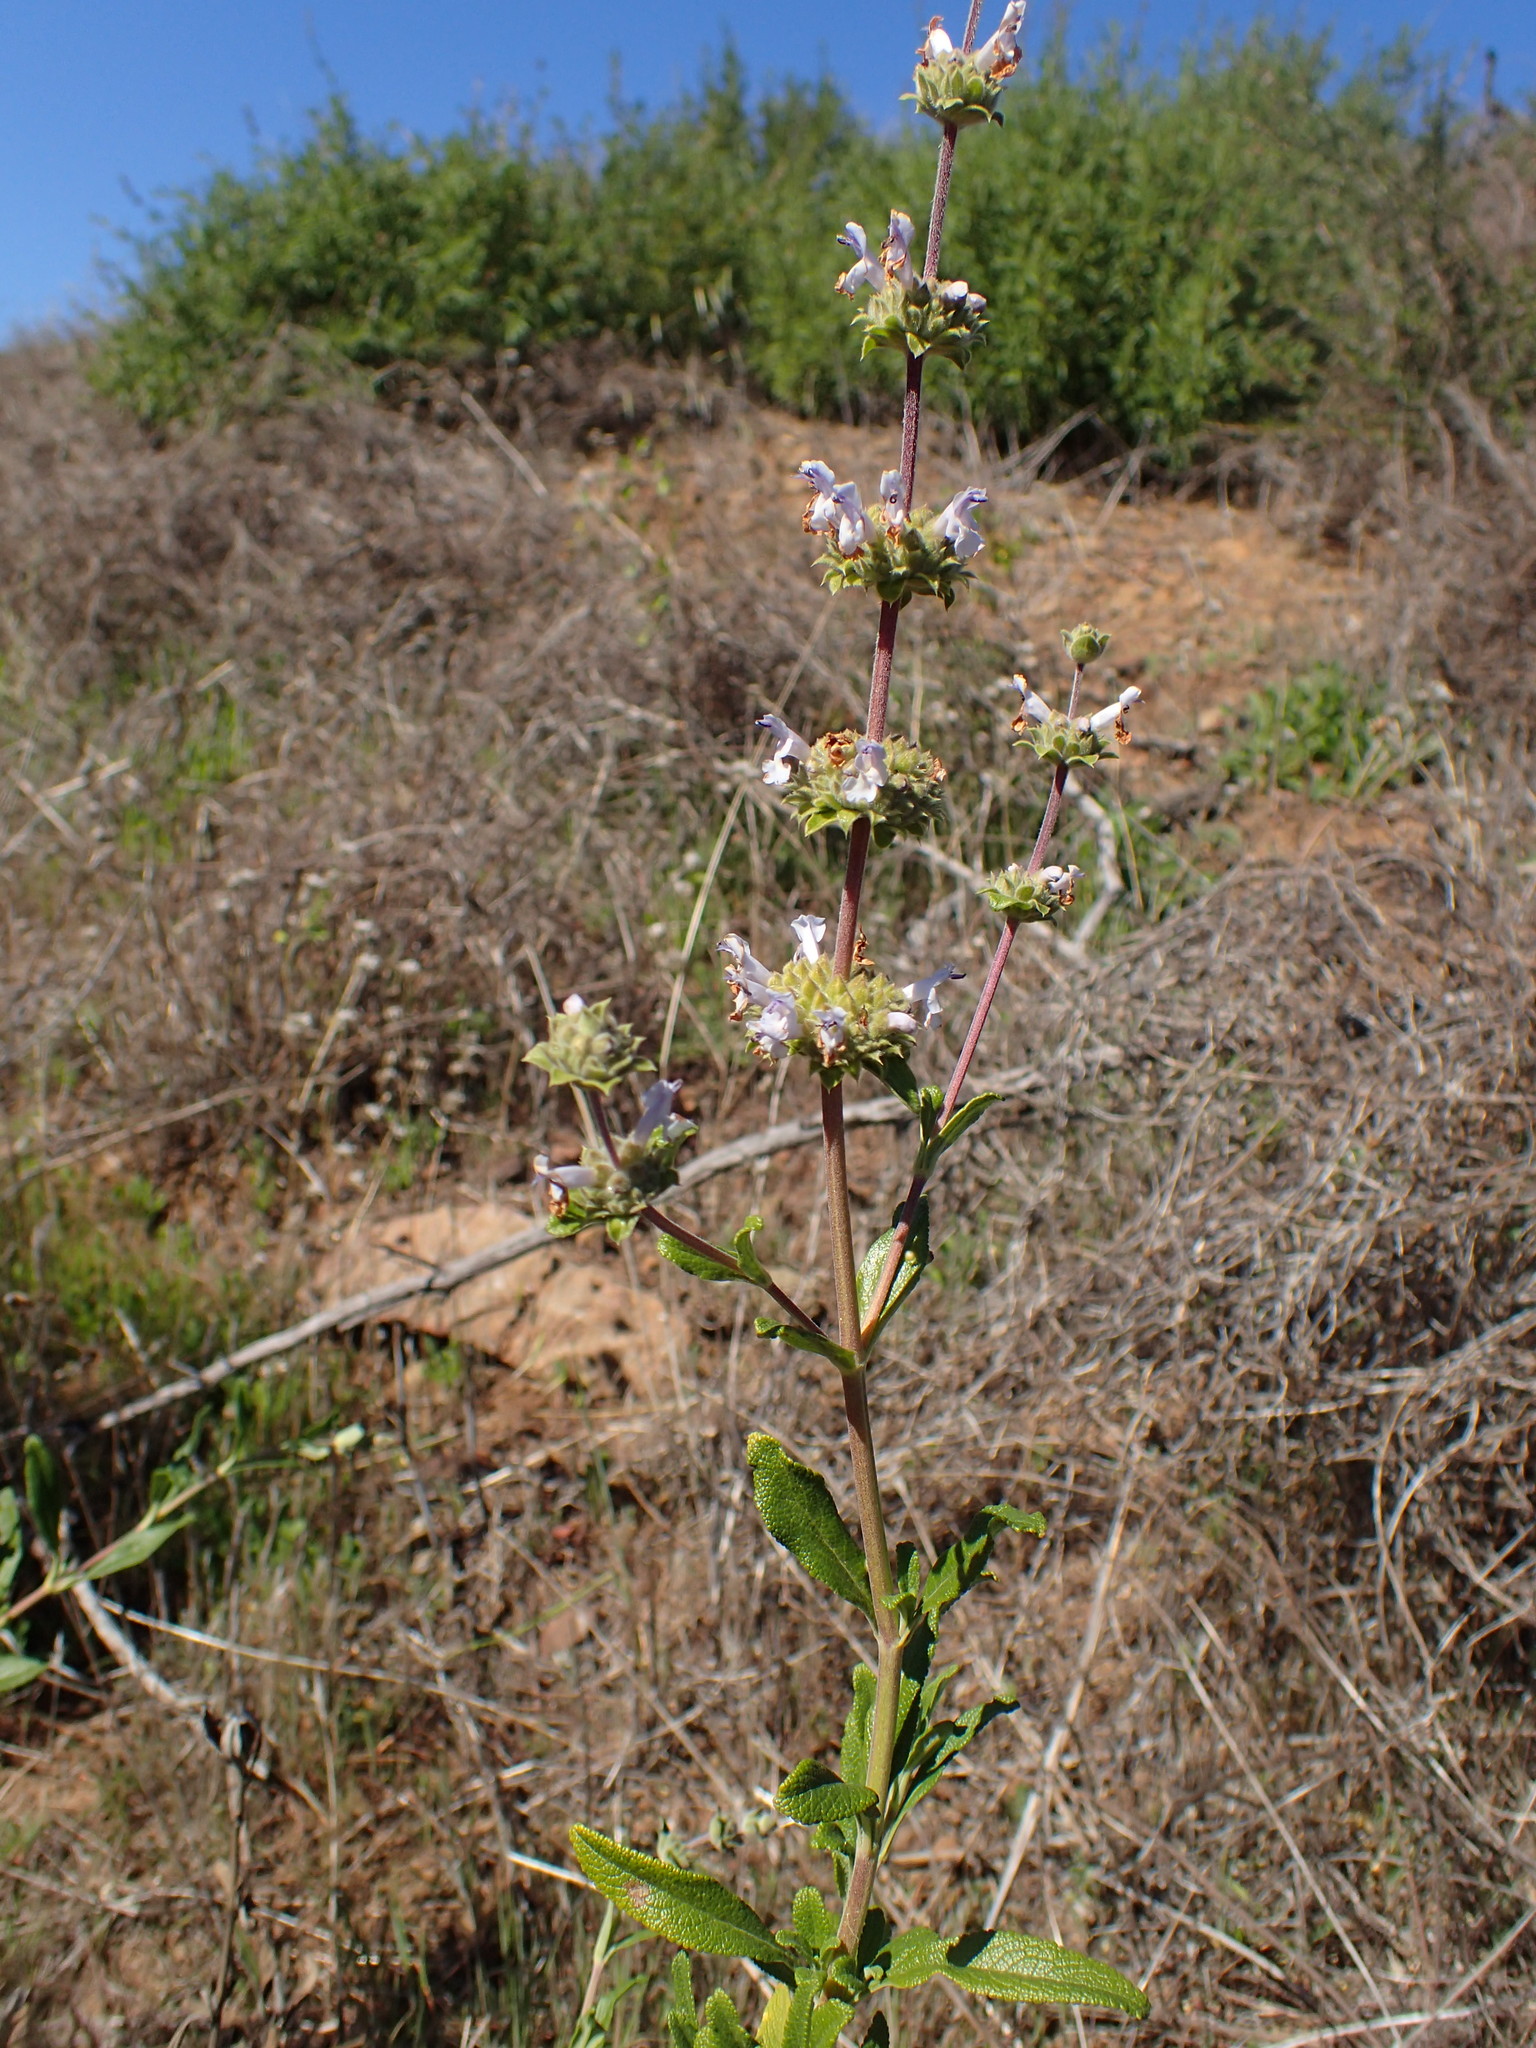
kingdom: Plantae
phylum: Tracheophyta
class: Magnoliopsida
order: Lamiales
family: Lamiaceae
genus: Salvia
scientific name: Salvia mellifera
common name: Black sage
